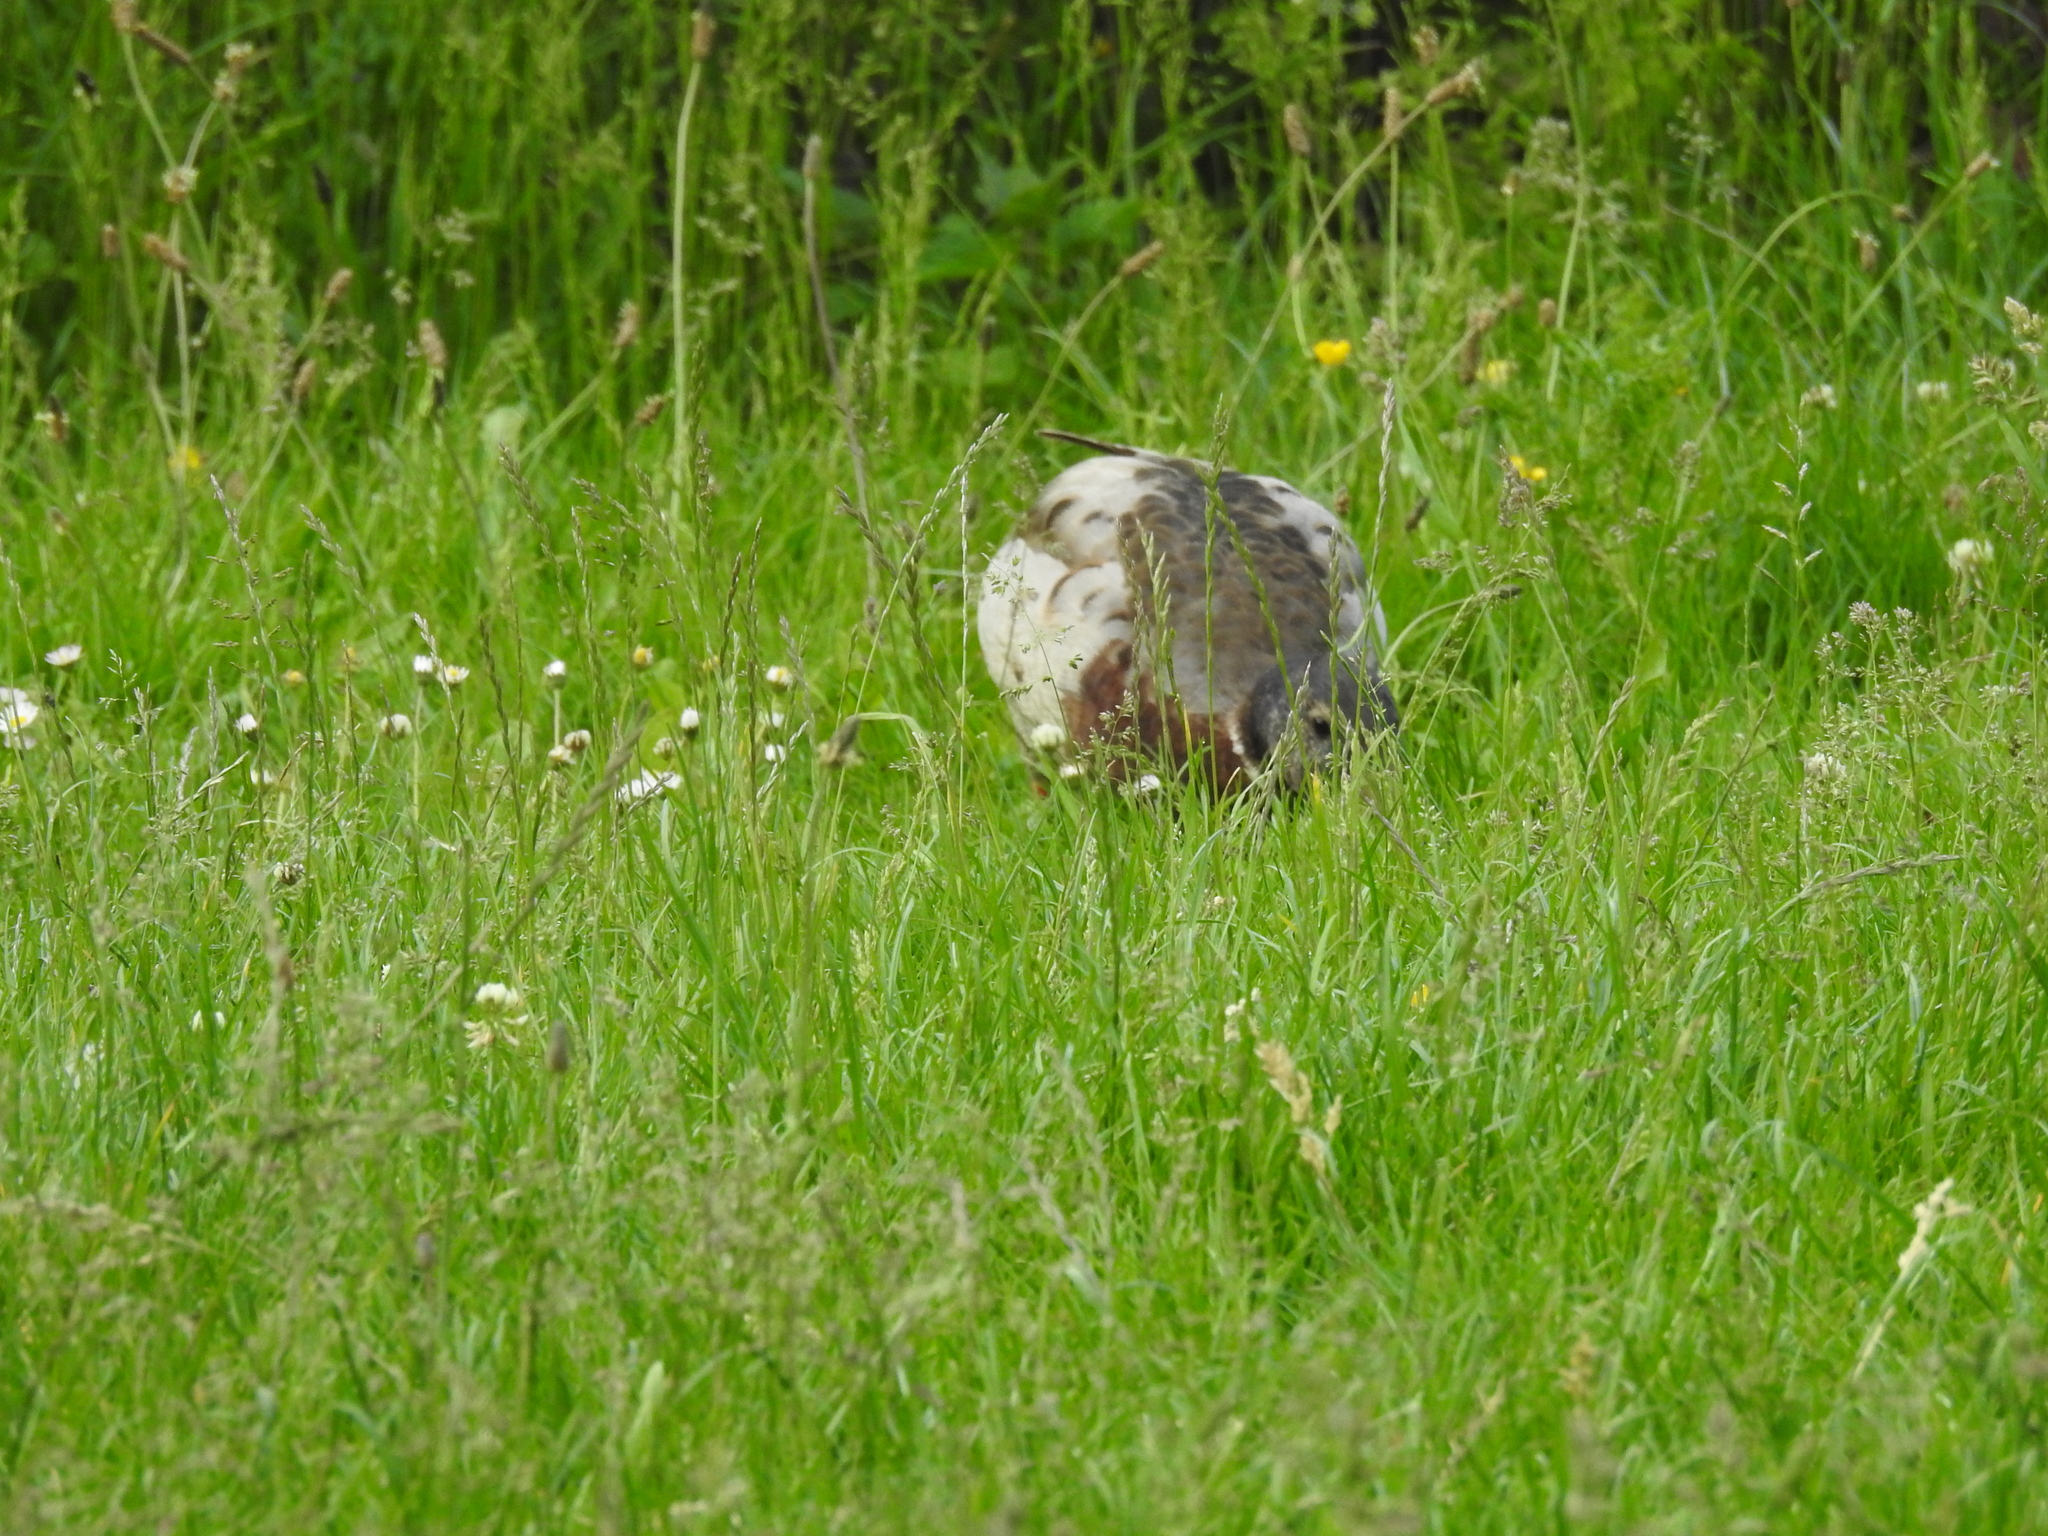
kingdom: Animalia
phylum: Chordata
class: Aves
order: Anseriformes
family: Anatidae
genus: Anas
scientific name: Anas platyrhynchos
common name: Mallard
